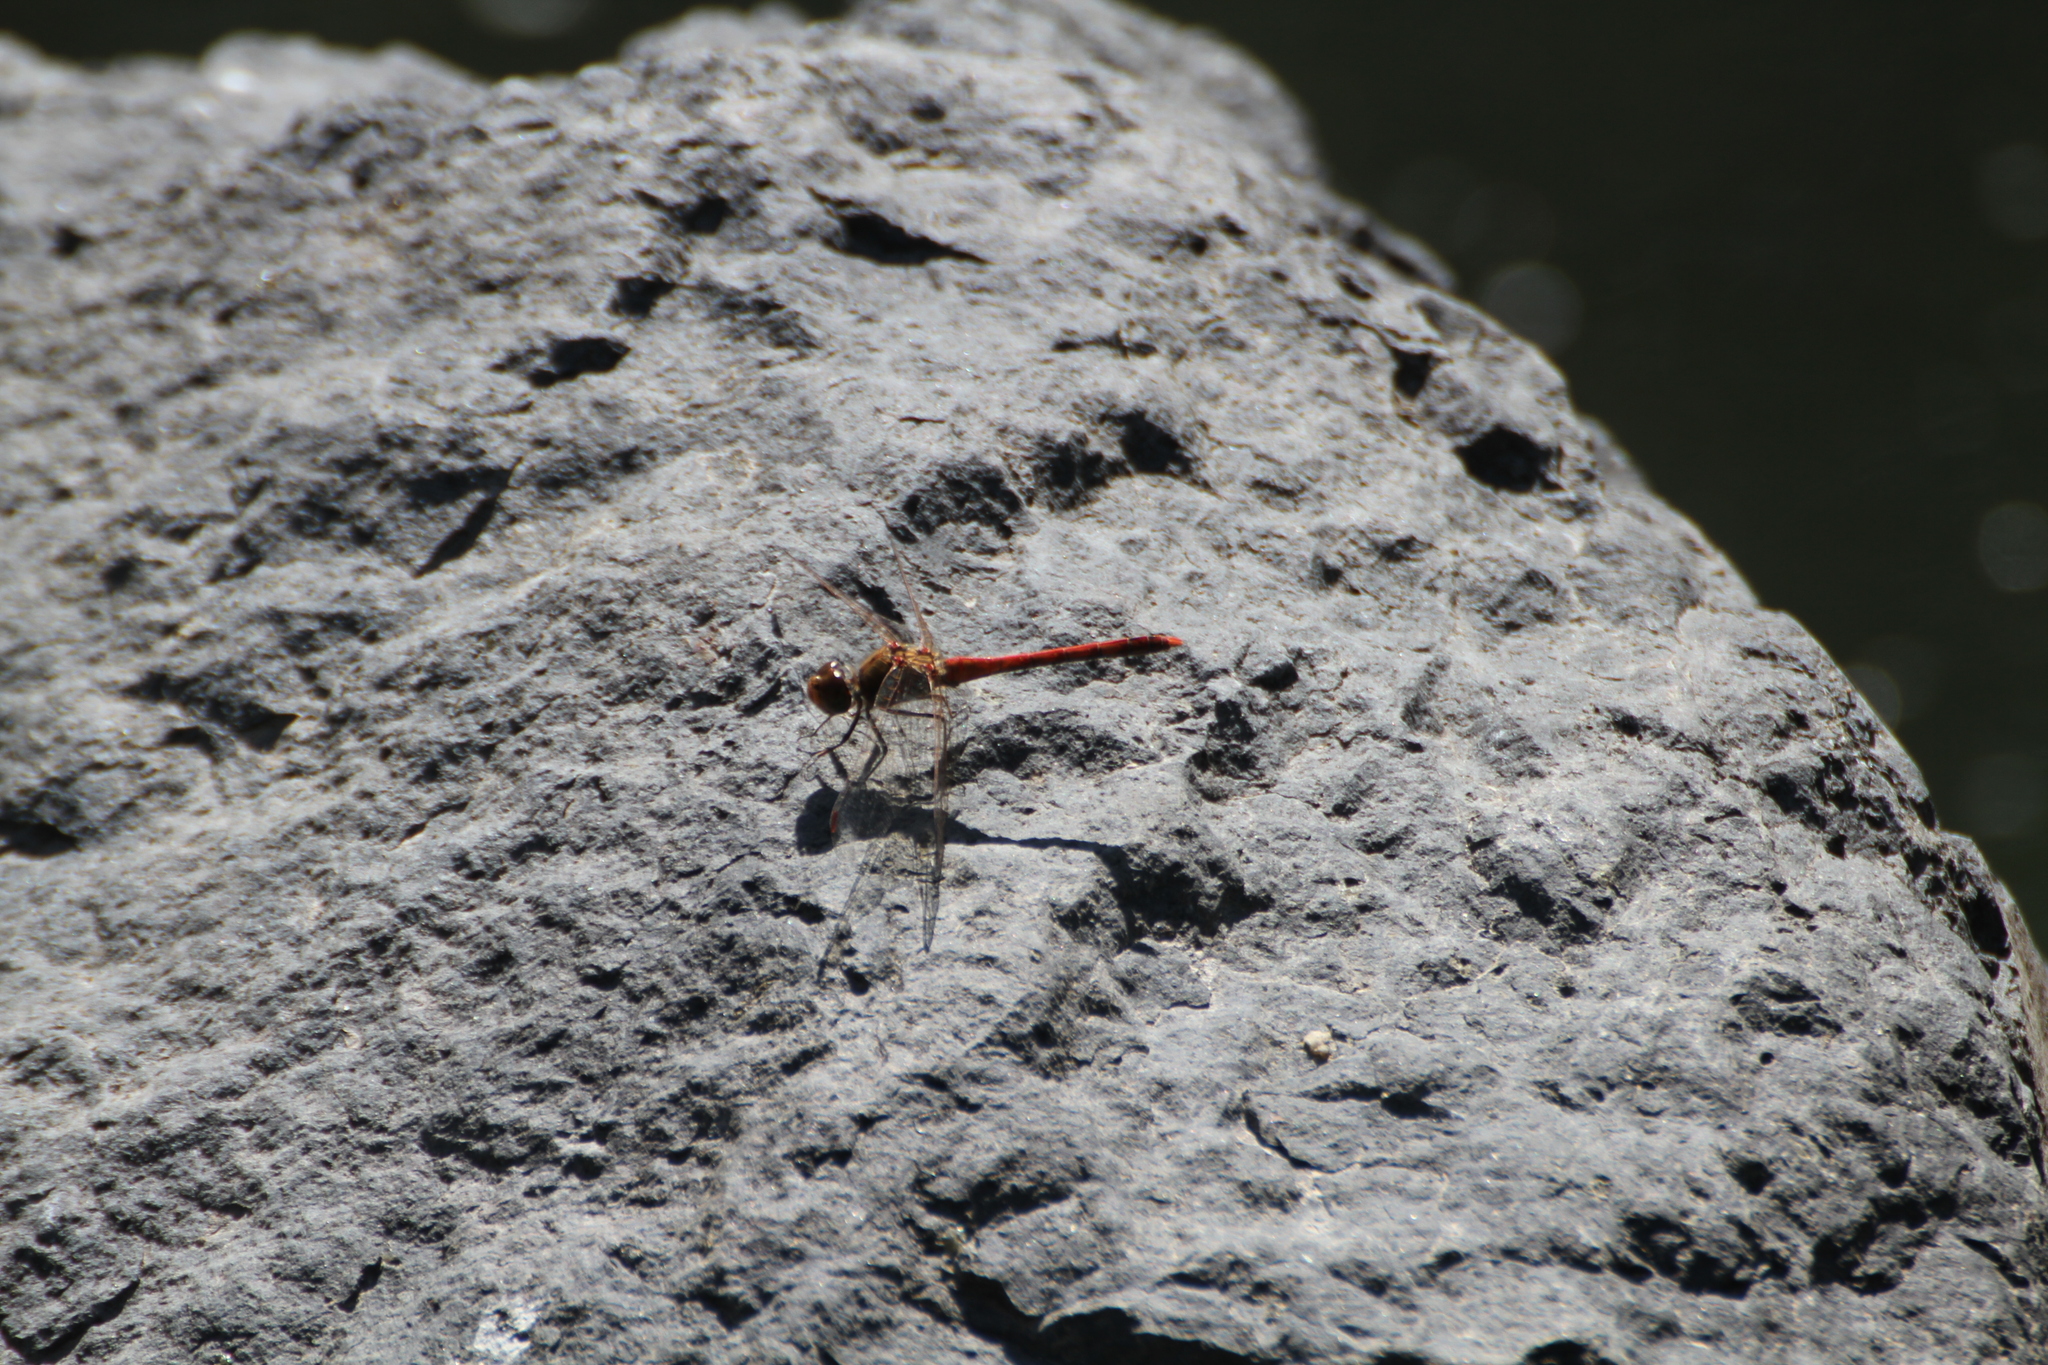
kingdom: Animalia
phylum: Arthropoda
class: Insecta
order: Odonata
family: Libellulidae
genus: Sympetrum
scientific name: Sympetrum striolatum
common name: Common darter
